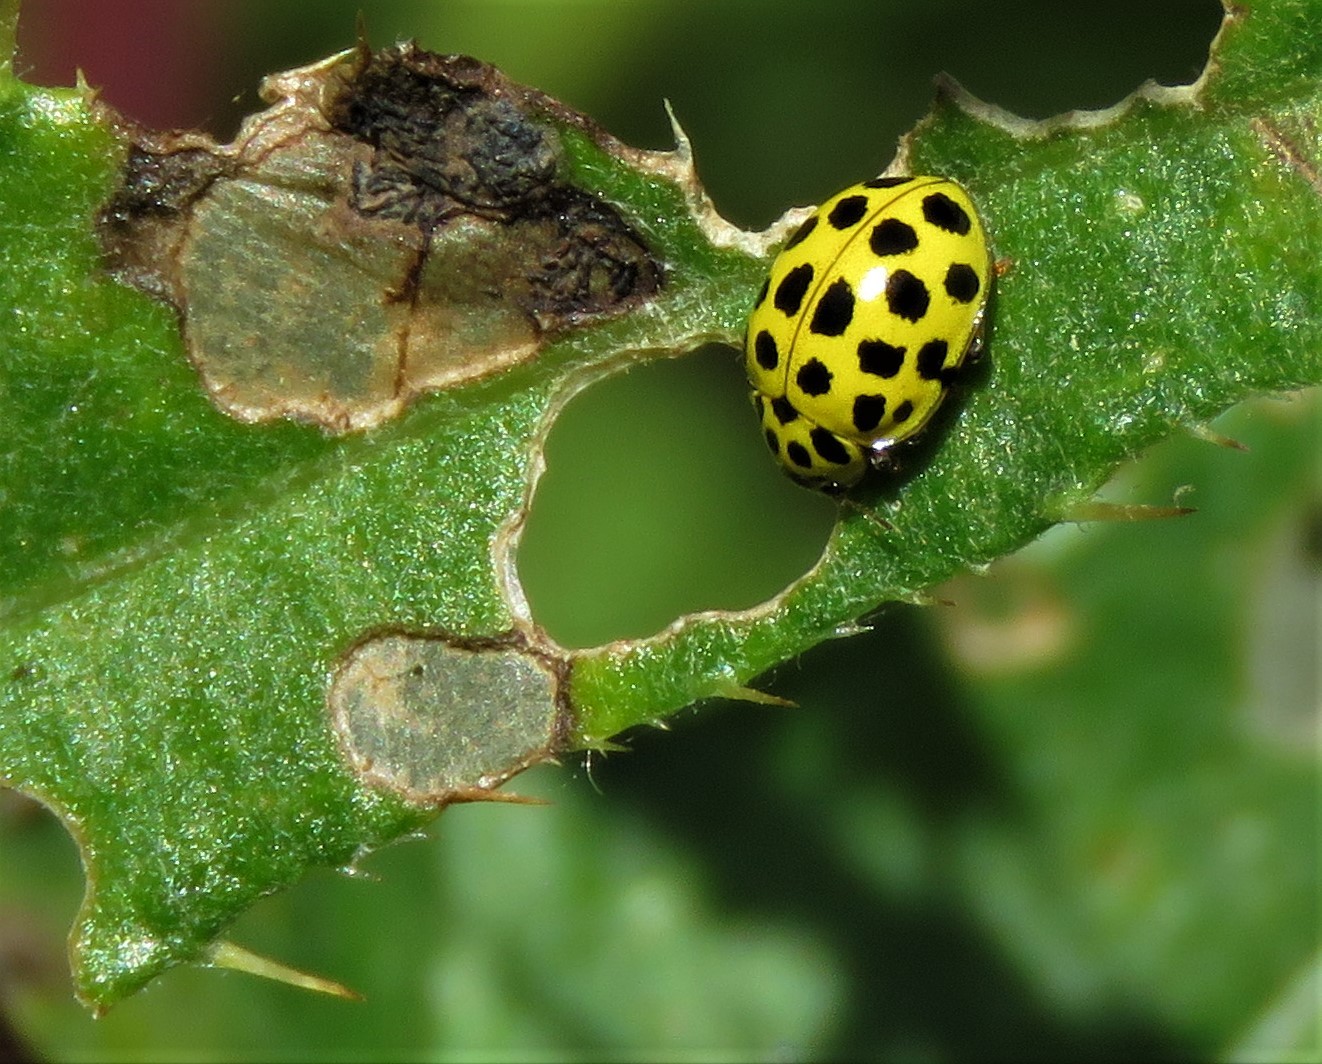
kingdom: Animalia
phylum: Arthropoda
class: Insecta
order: Coleoptera
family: Coccinellidae
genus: Psyllobora
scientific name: Psyllobora vigintiduopunctata
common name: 22-spot ladybird
